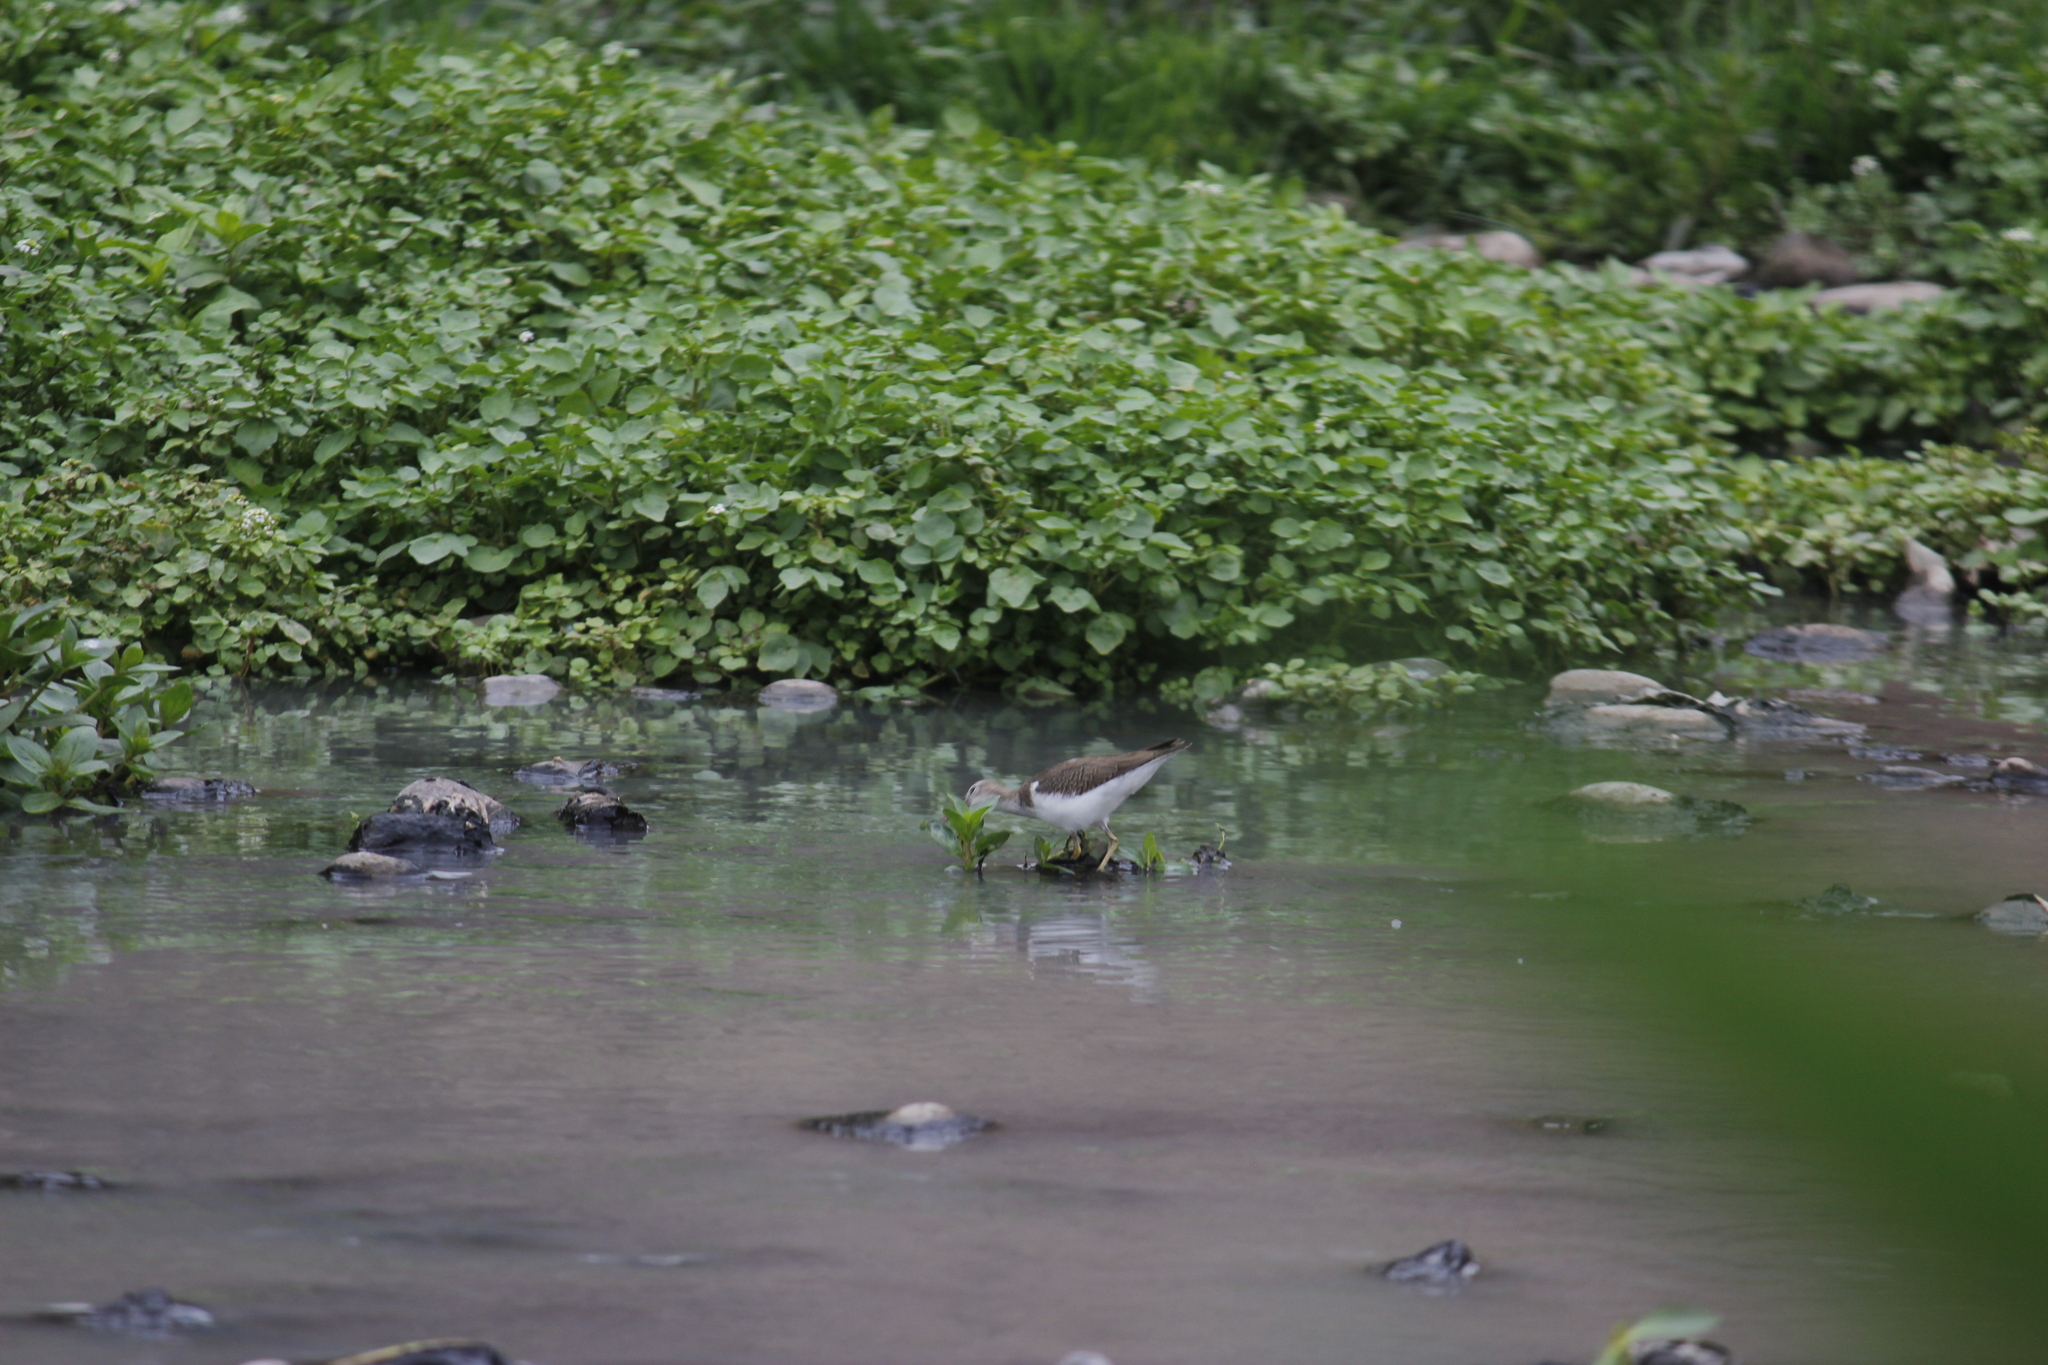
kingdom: Animalia
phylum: Chordata
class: Aves
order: Charadriiformes
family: Scolopacidae
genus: Actitis
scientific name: Actitis macularius
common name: Spotted sandpiper
